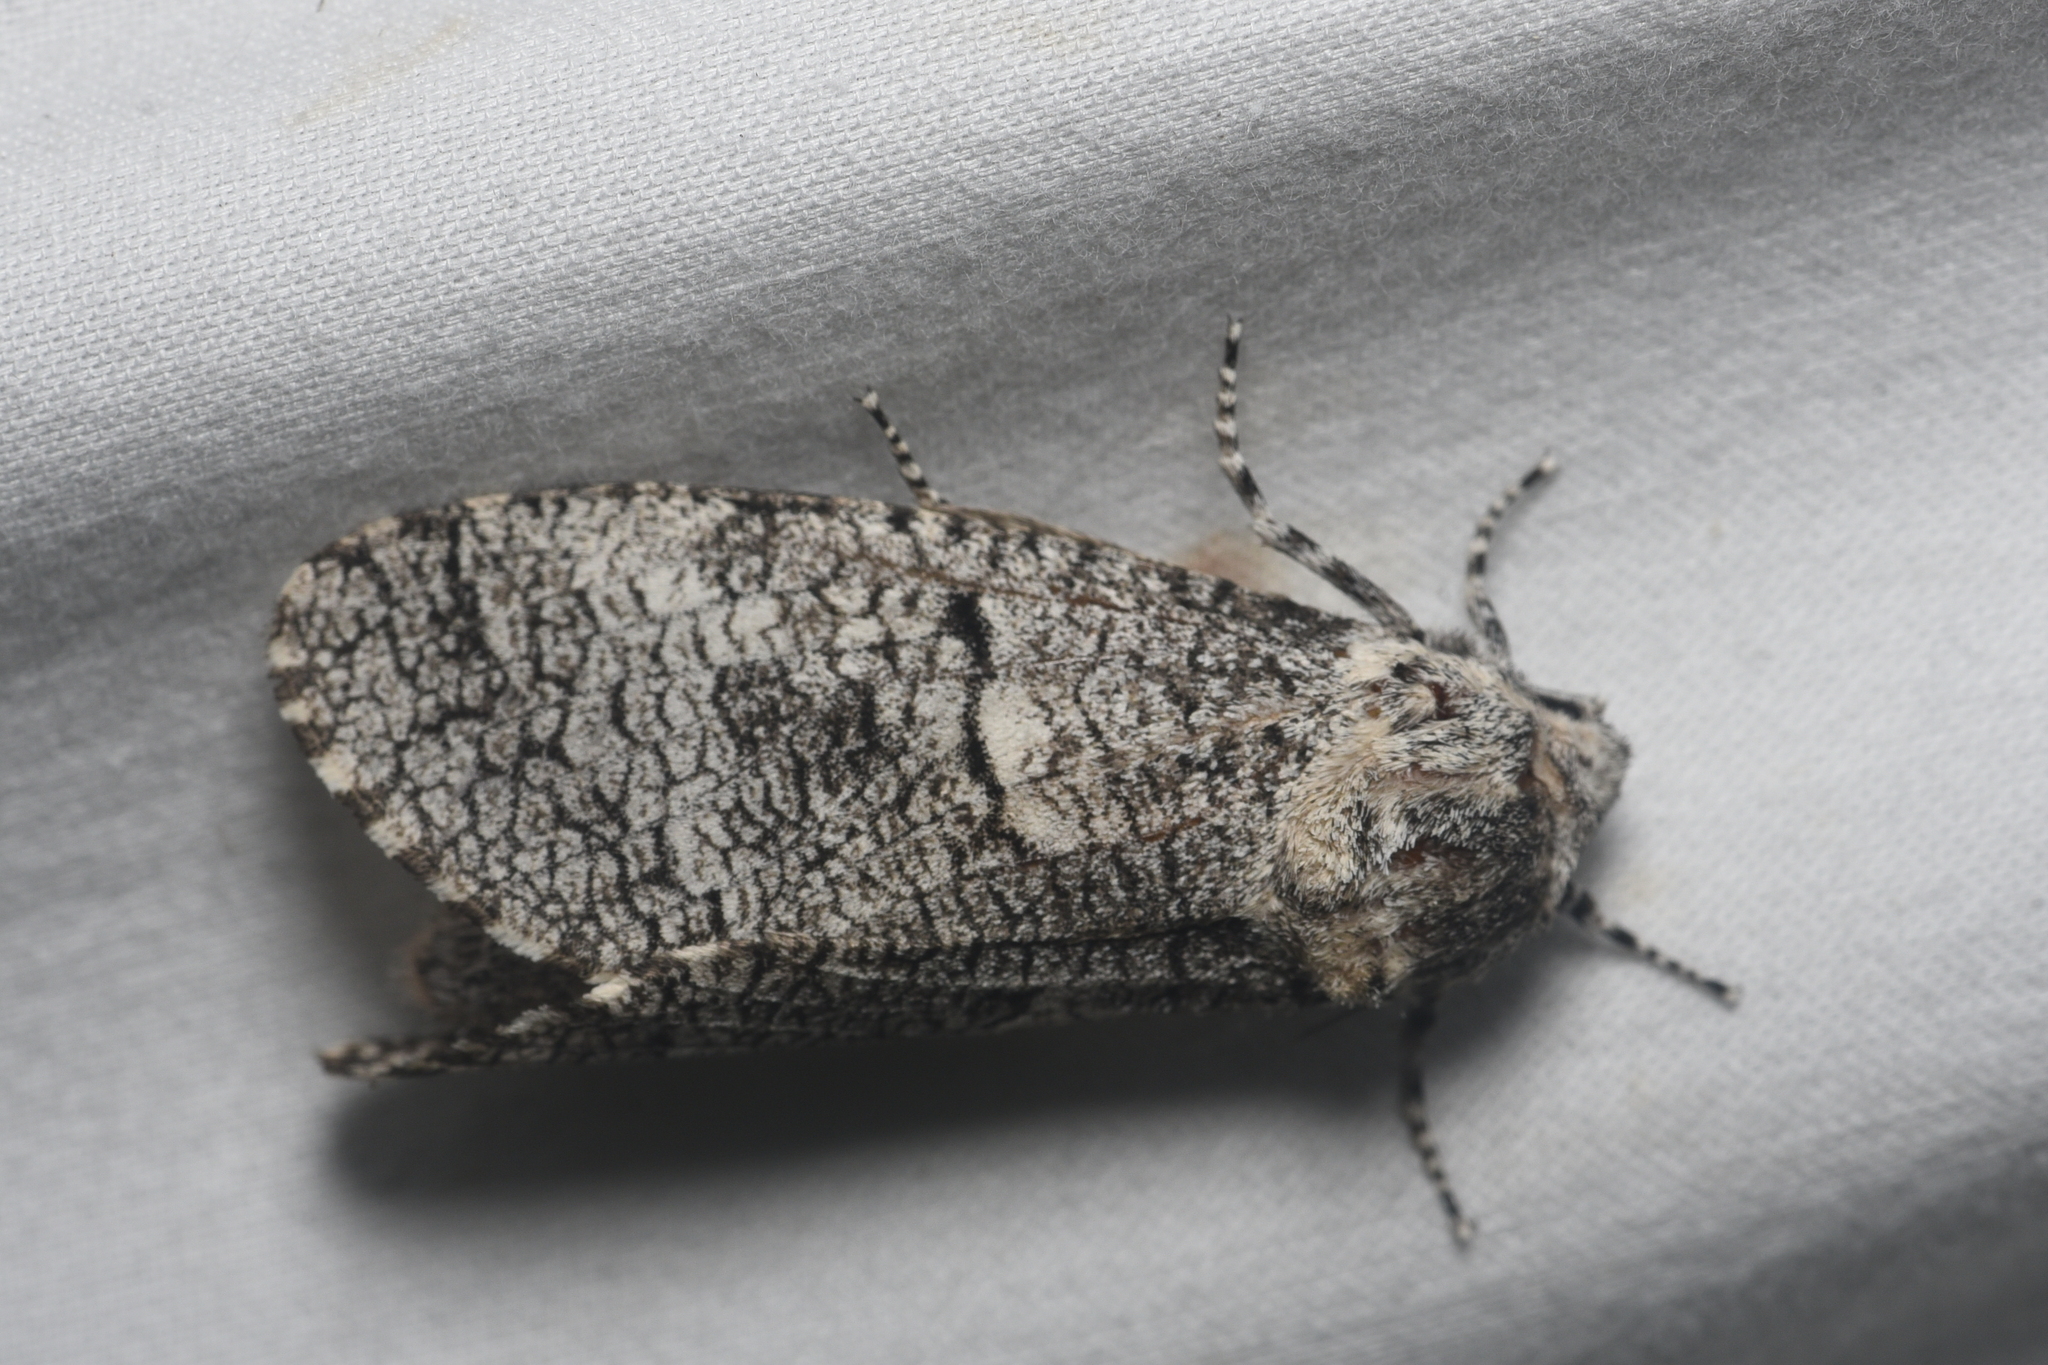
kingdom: Animalia
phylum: Arthropoda
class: Insecta
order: Lepidoptera
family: Cossidae
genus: Acossus
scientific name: Acossus populi
